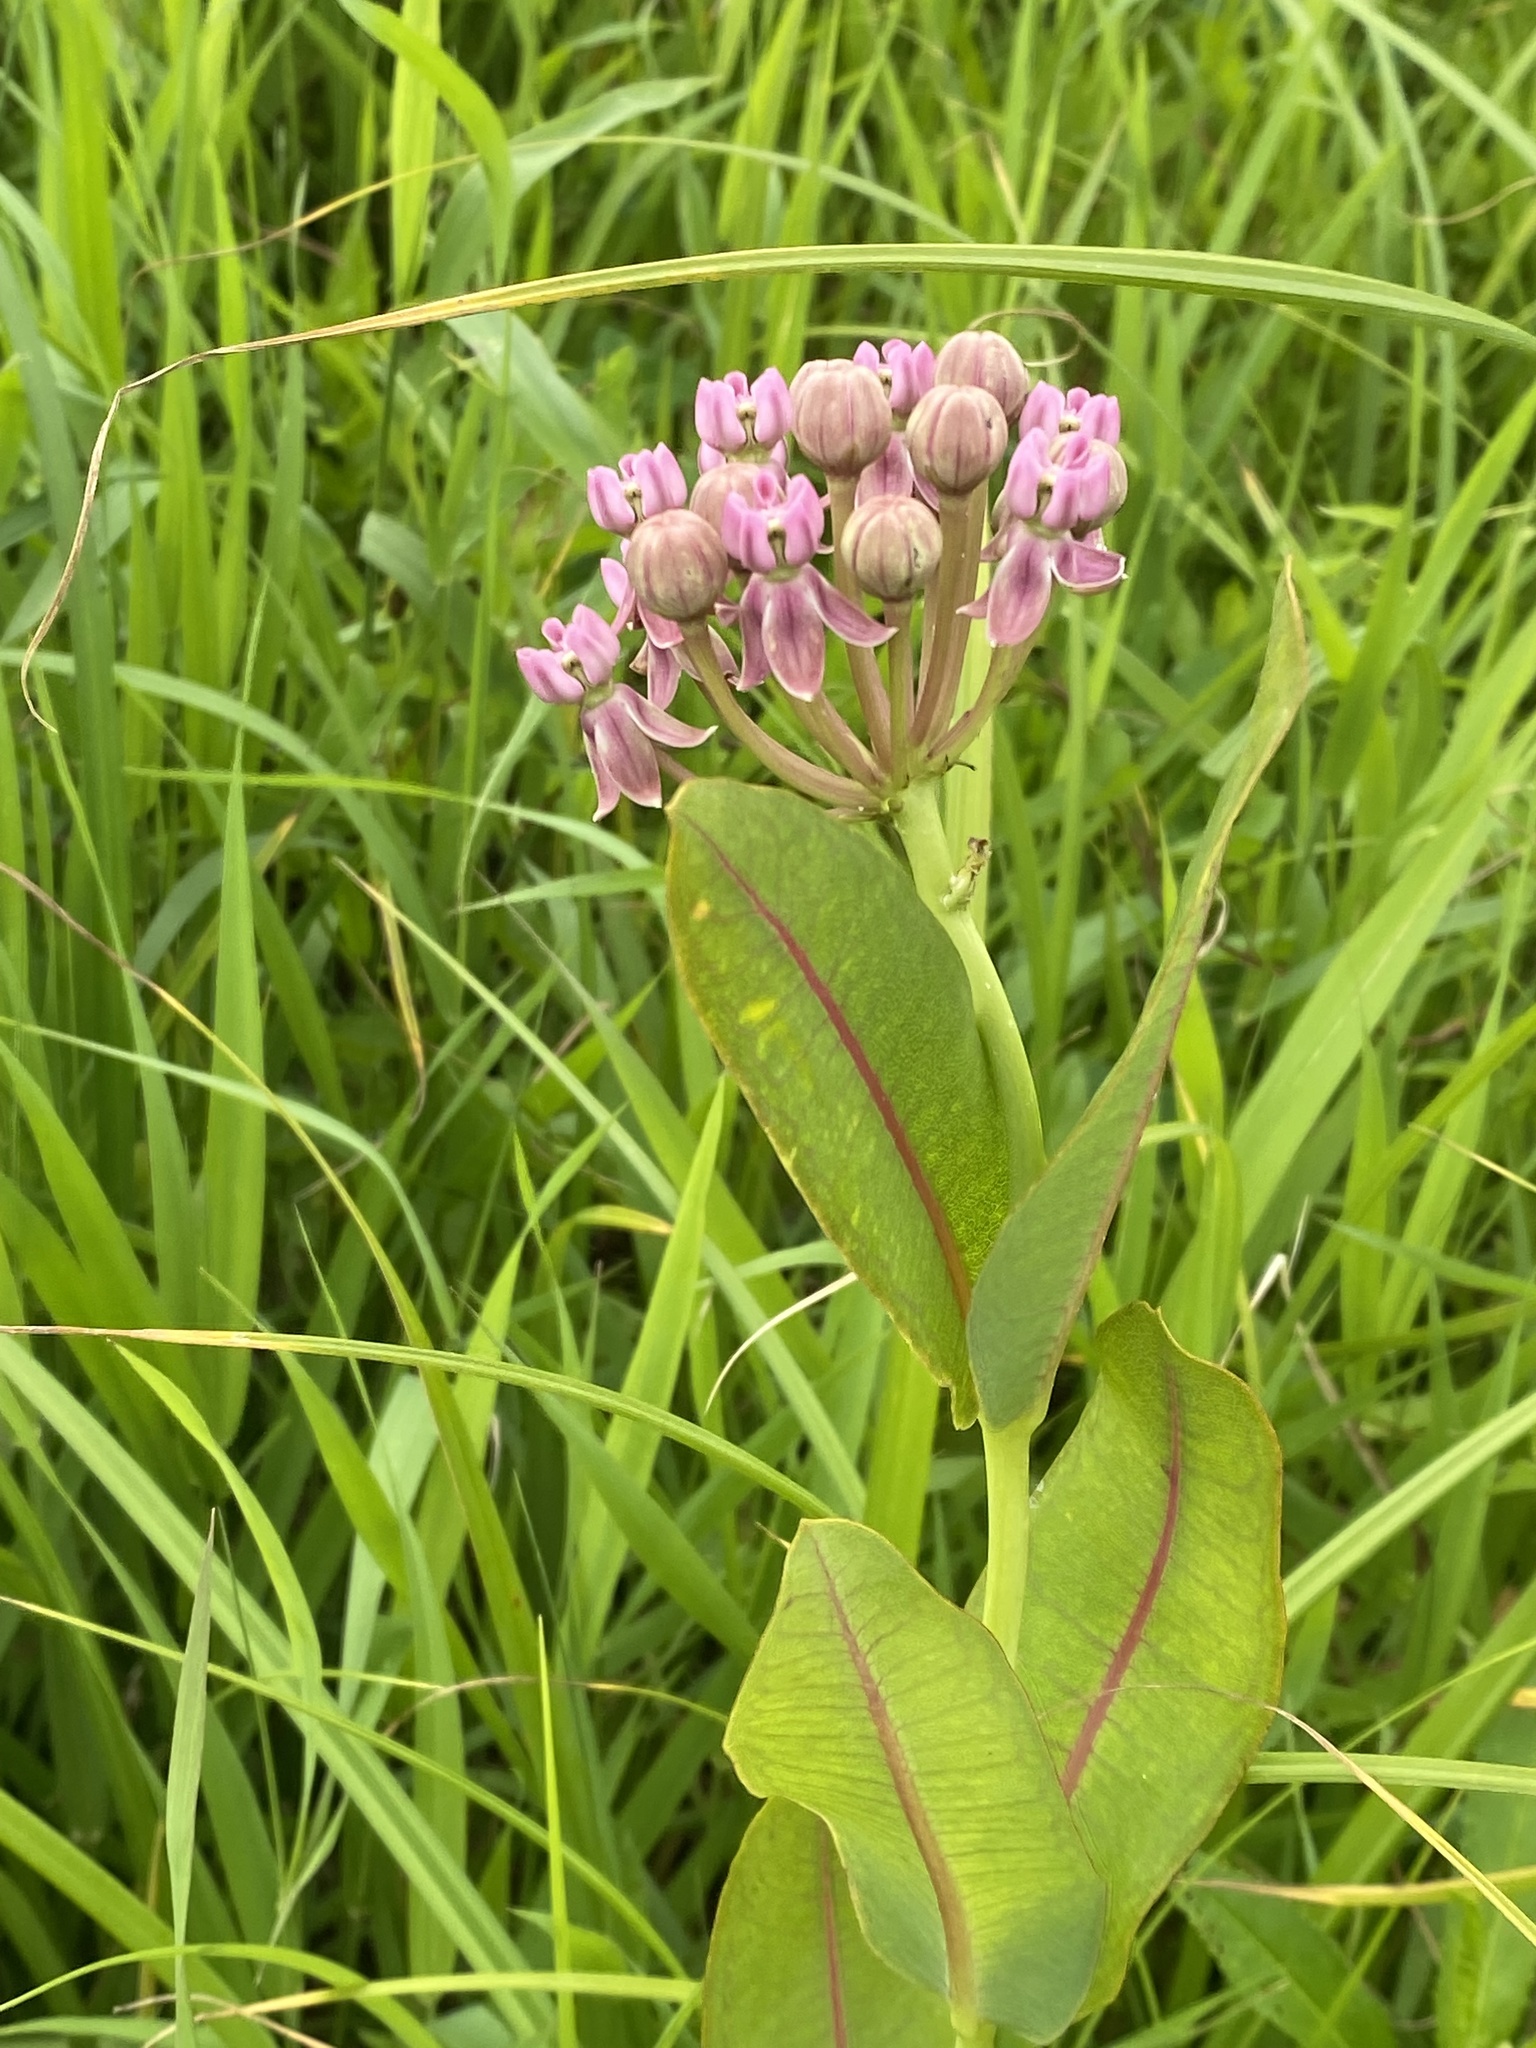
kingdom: Plantae
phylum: Tracheophyta
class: Magnoliopsida
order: Gentianales
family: Apocynaceae
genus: Asclepias
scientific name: Asclepias sullivantii
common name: Prairie milkweed
